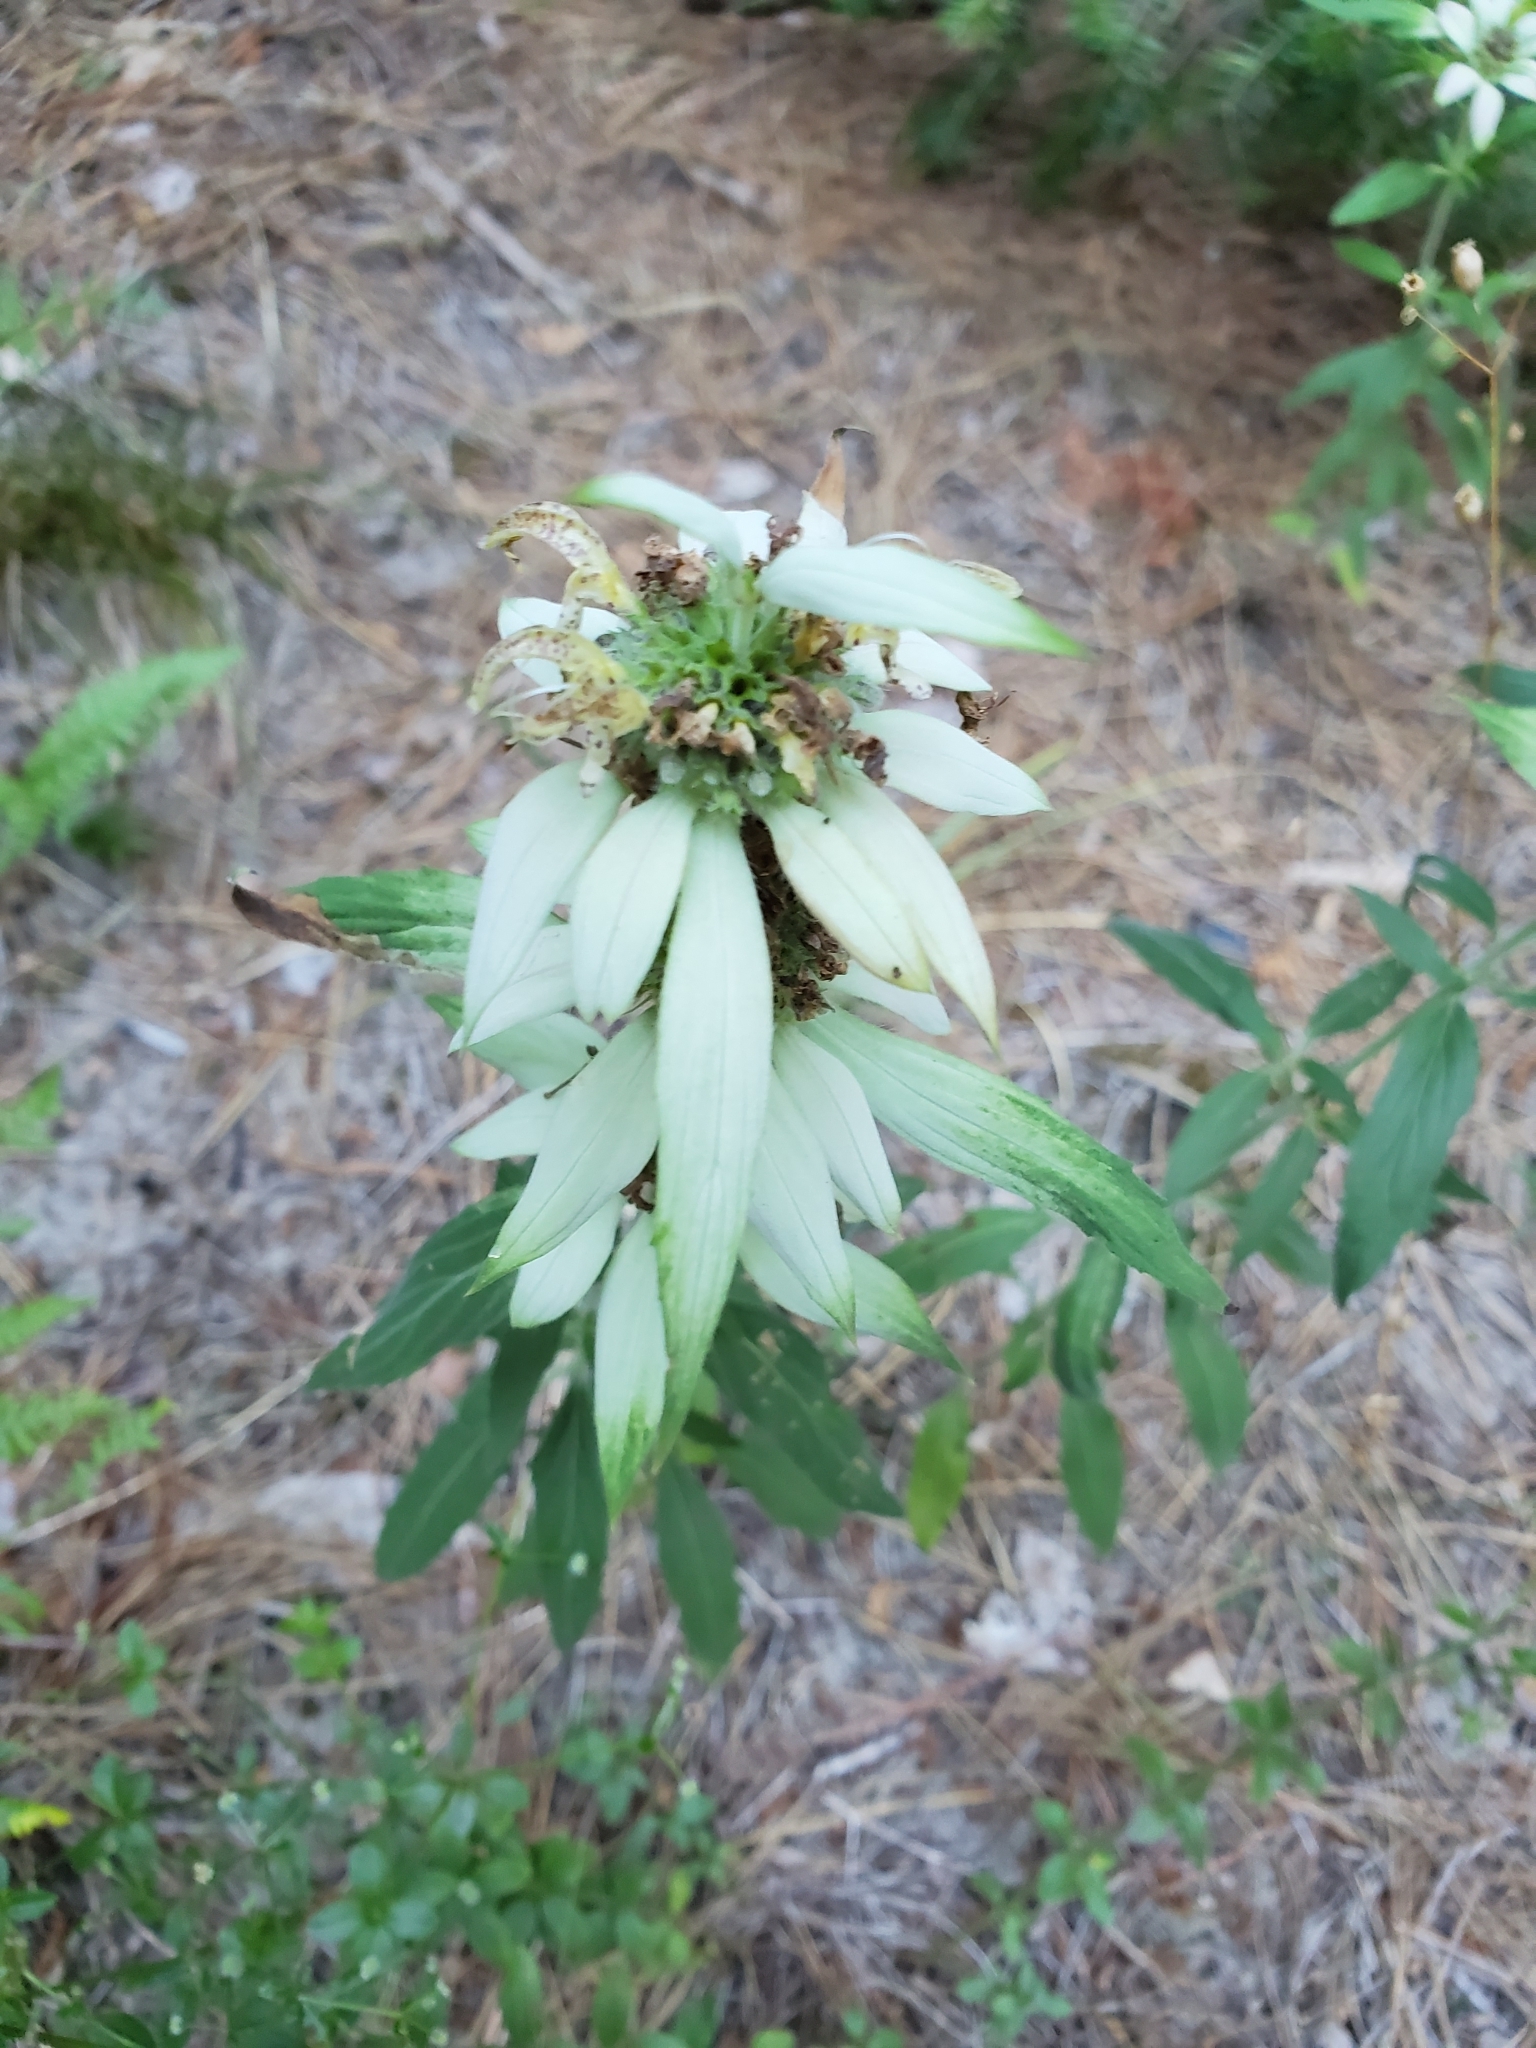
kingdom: Plantae
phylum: Tracheophyta
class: Magnoliopsida
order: Lamiales
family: Lamiaceae
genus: Monarda
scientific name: Monarda punctata
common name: Dotted monarda
